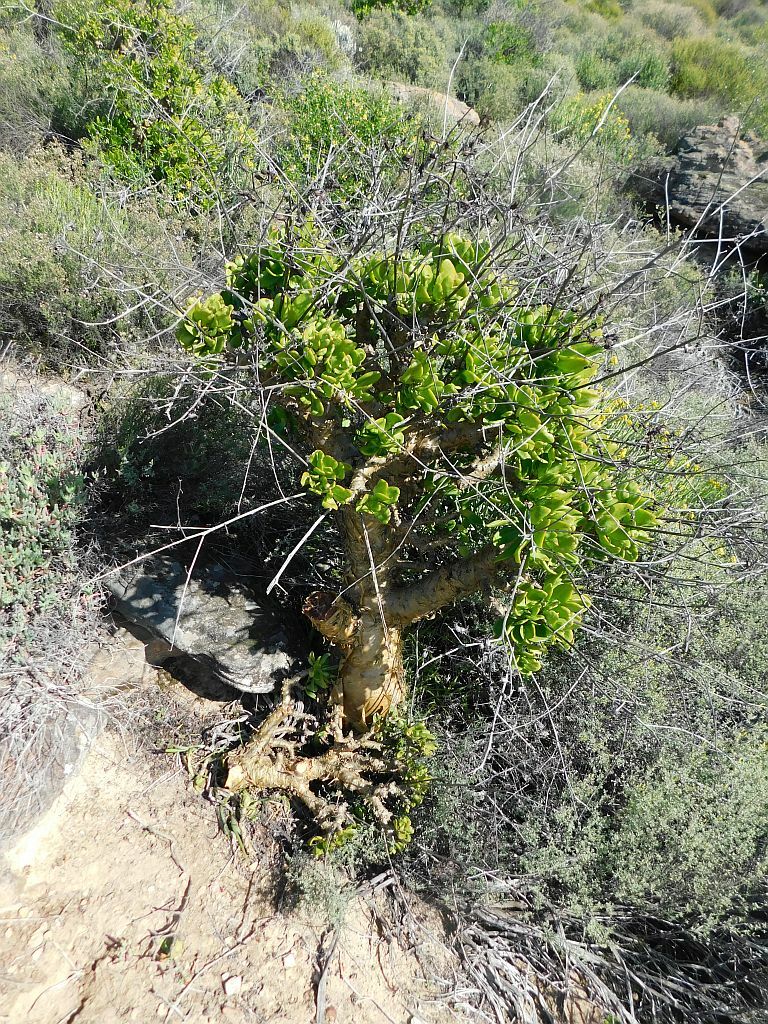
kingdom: Plantae
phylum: Tracheophyta
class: Magnoliopsida
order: Saxifragales
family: Crassulaceae
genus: Tylecodon
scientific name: Tylecodon paniculatus
